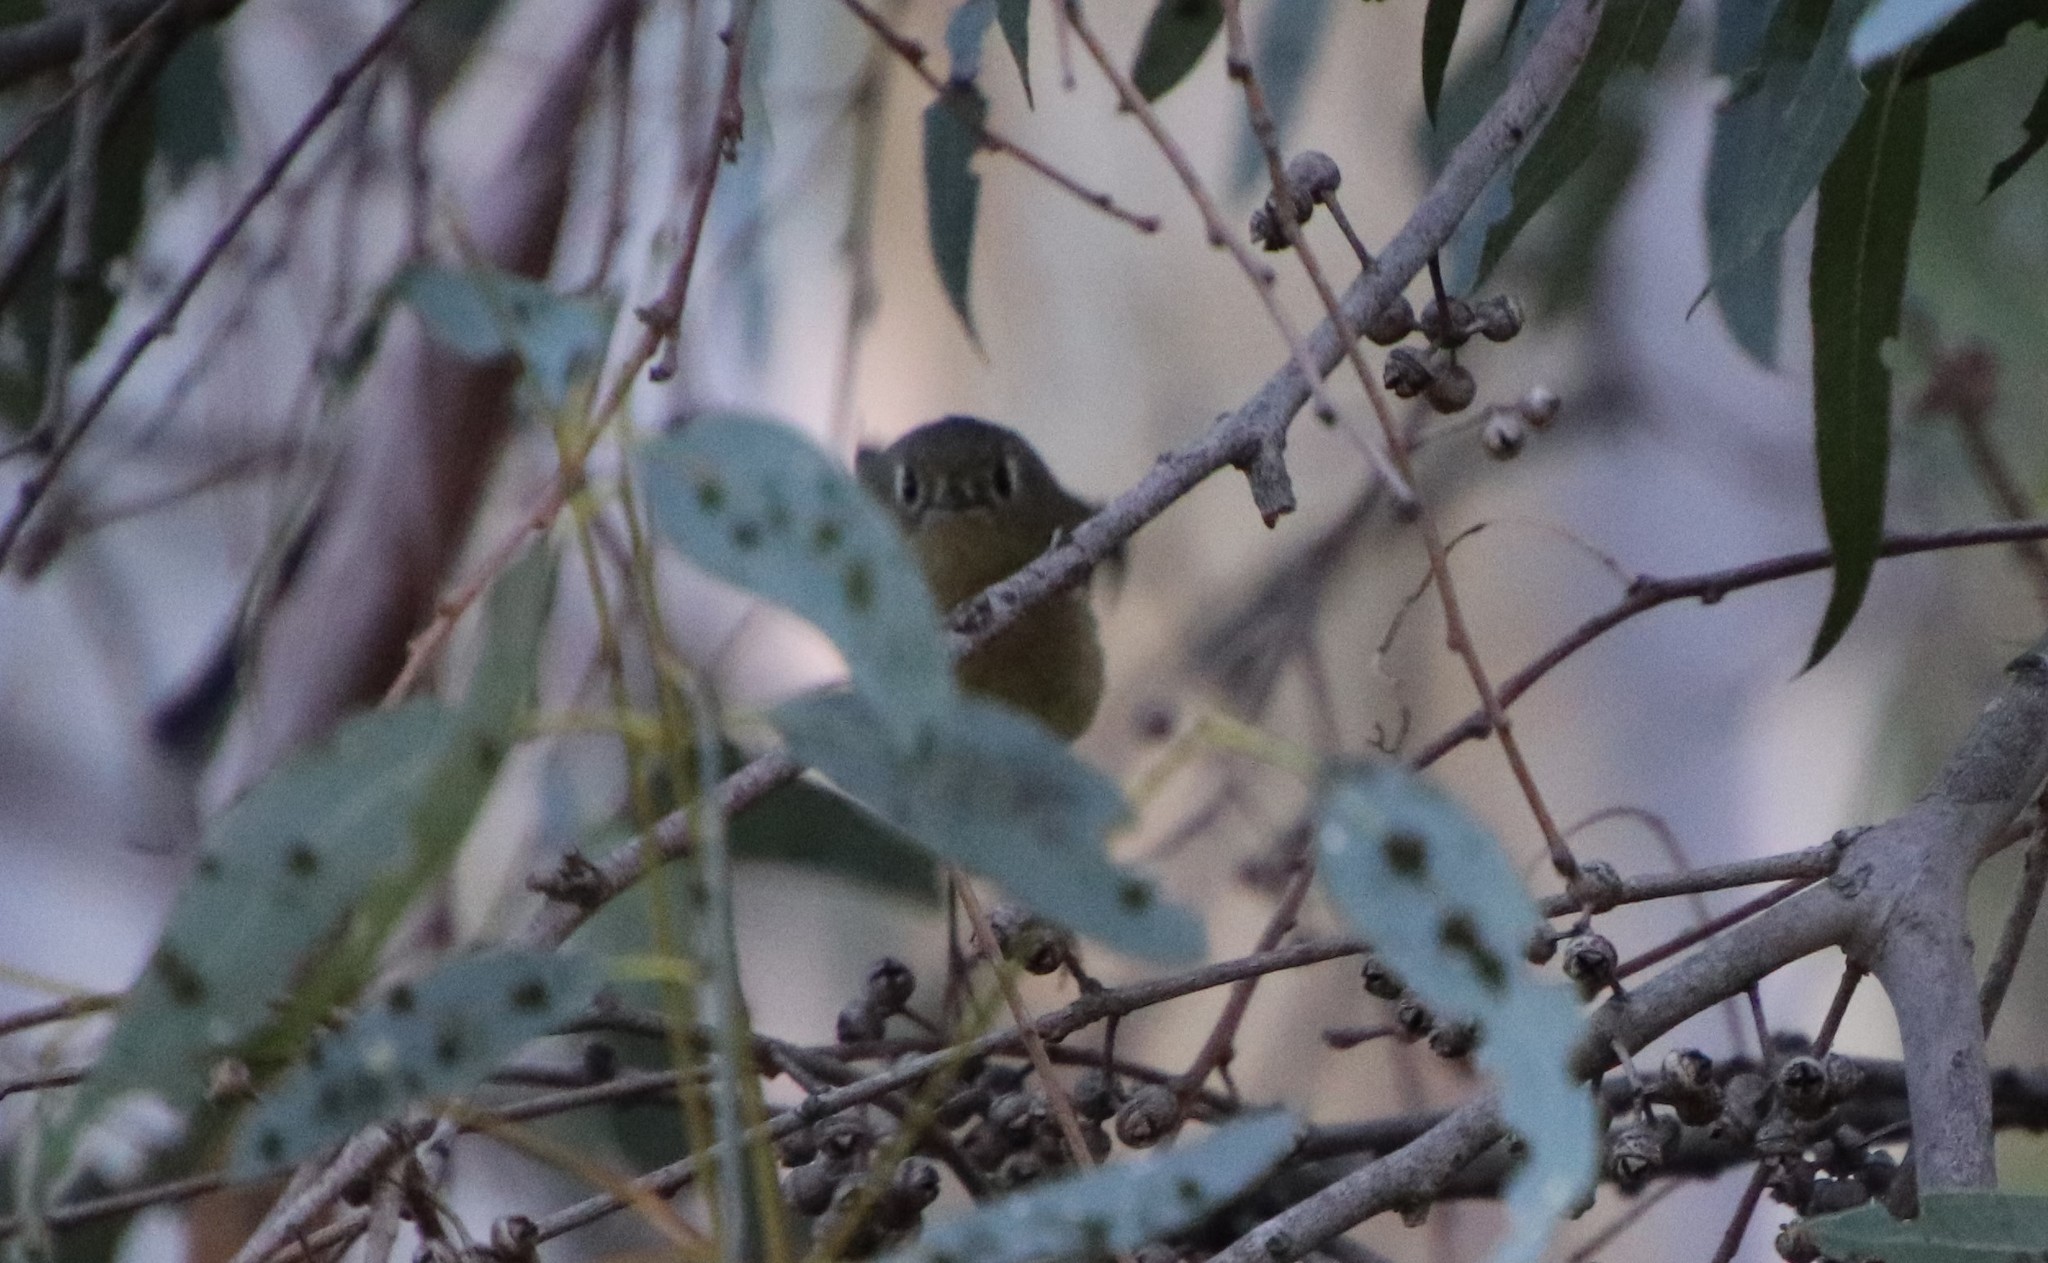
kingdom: Animalia
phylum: Chordata
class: Aves
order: Passeriformes
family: Regulidae
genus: Regulus
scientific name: Regulus calendula
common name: Ruby-crowned kinglet
